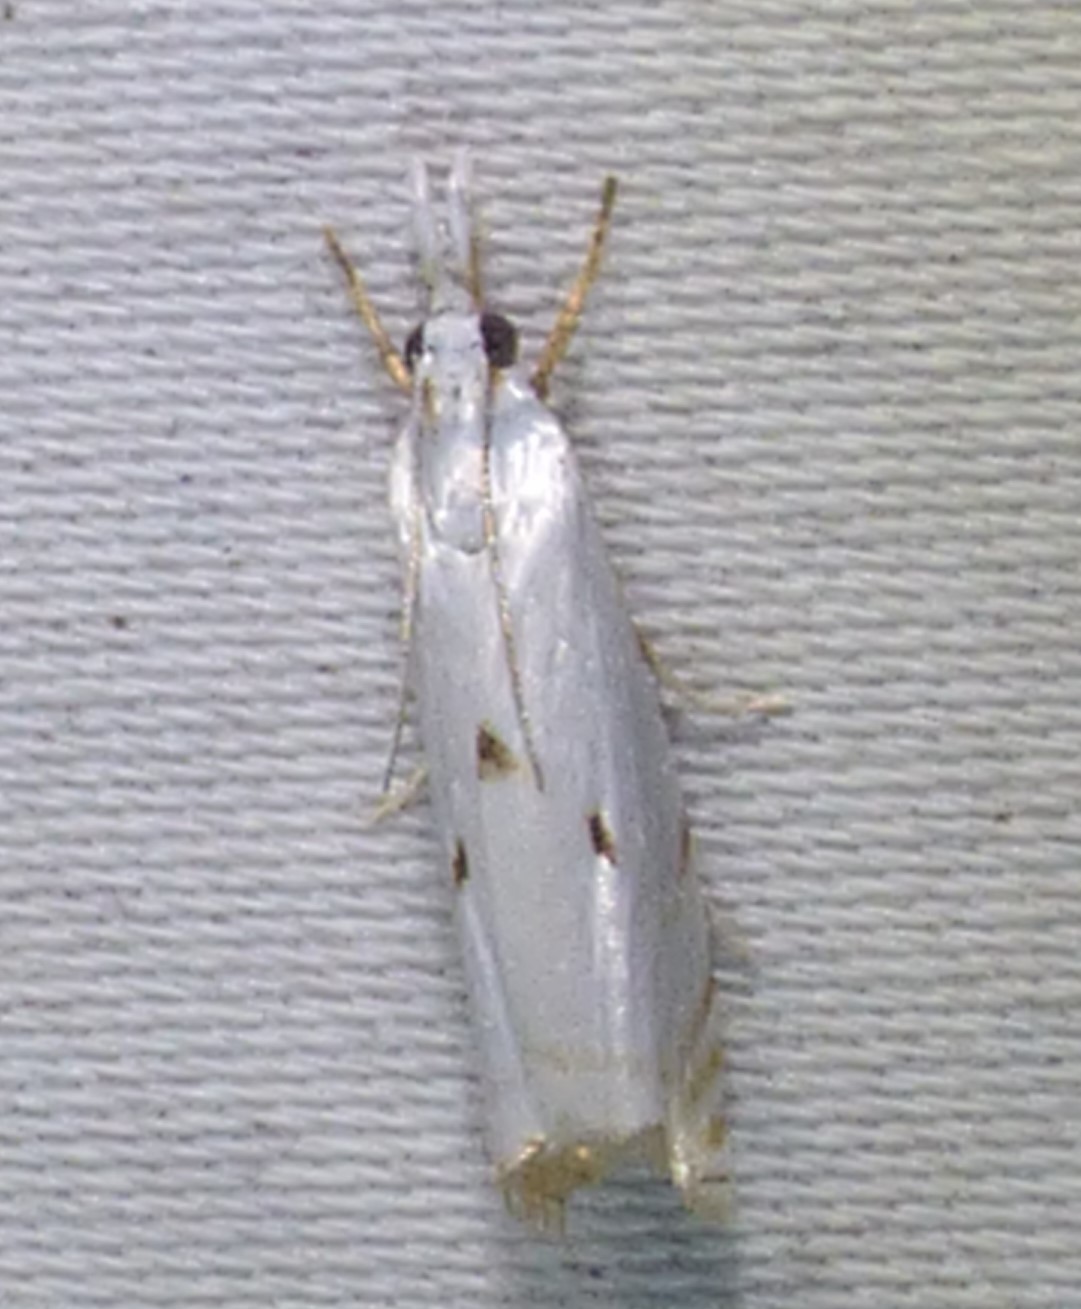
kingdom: Animalia
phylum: Arthropoda
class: Insecta
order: Lepidoptera
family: Crambidae
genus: Microcrambus
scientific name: Microcrambus biguttellus
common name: Gold-stripe grass-veneer moth
